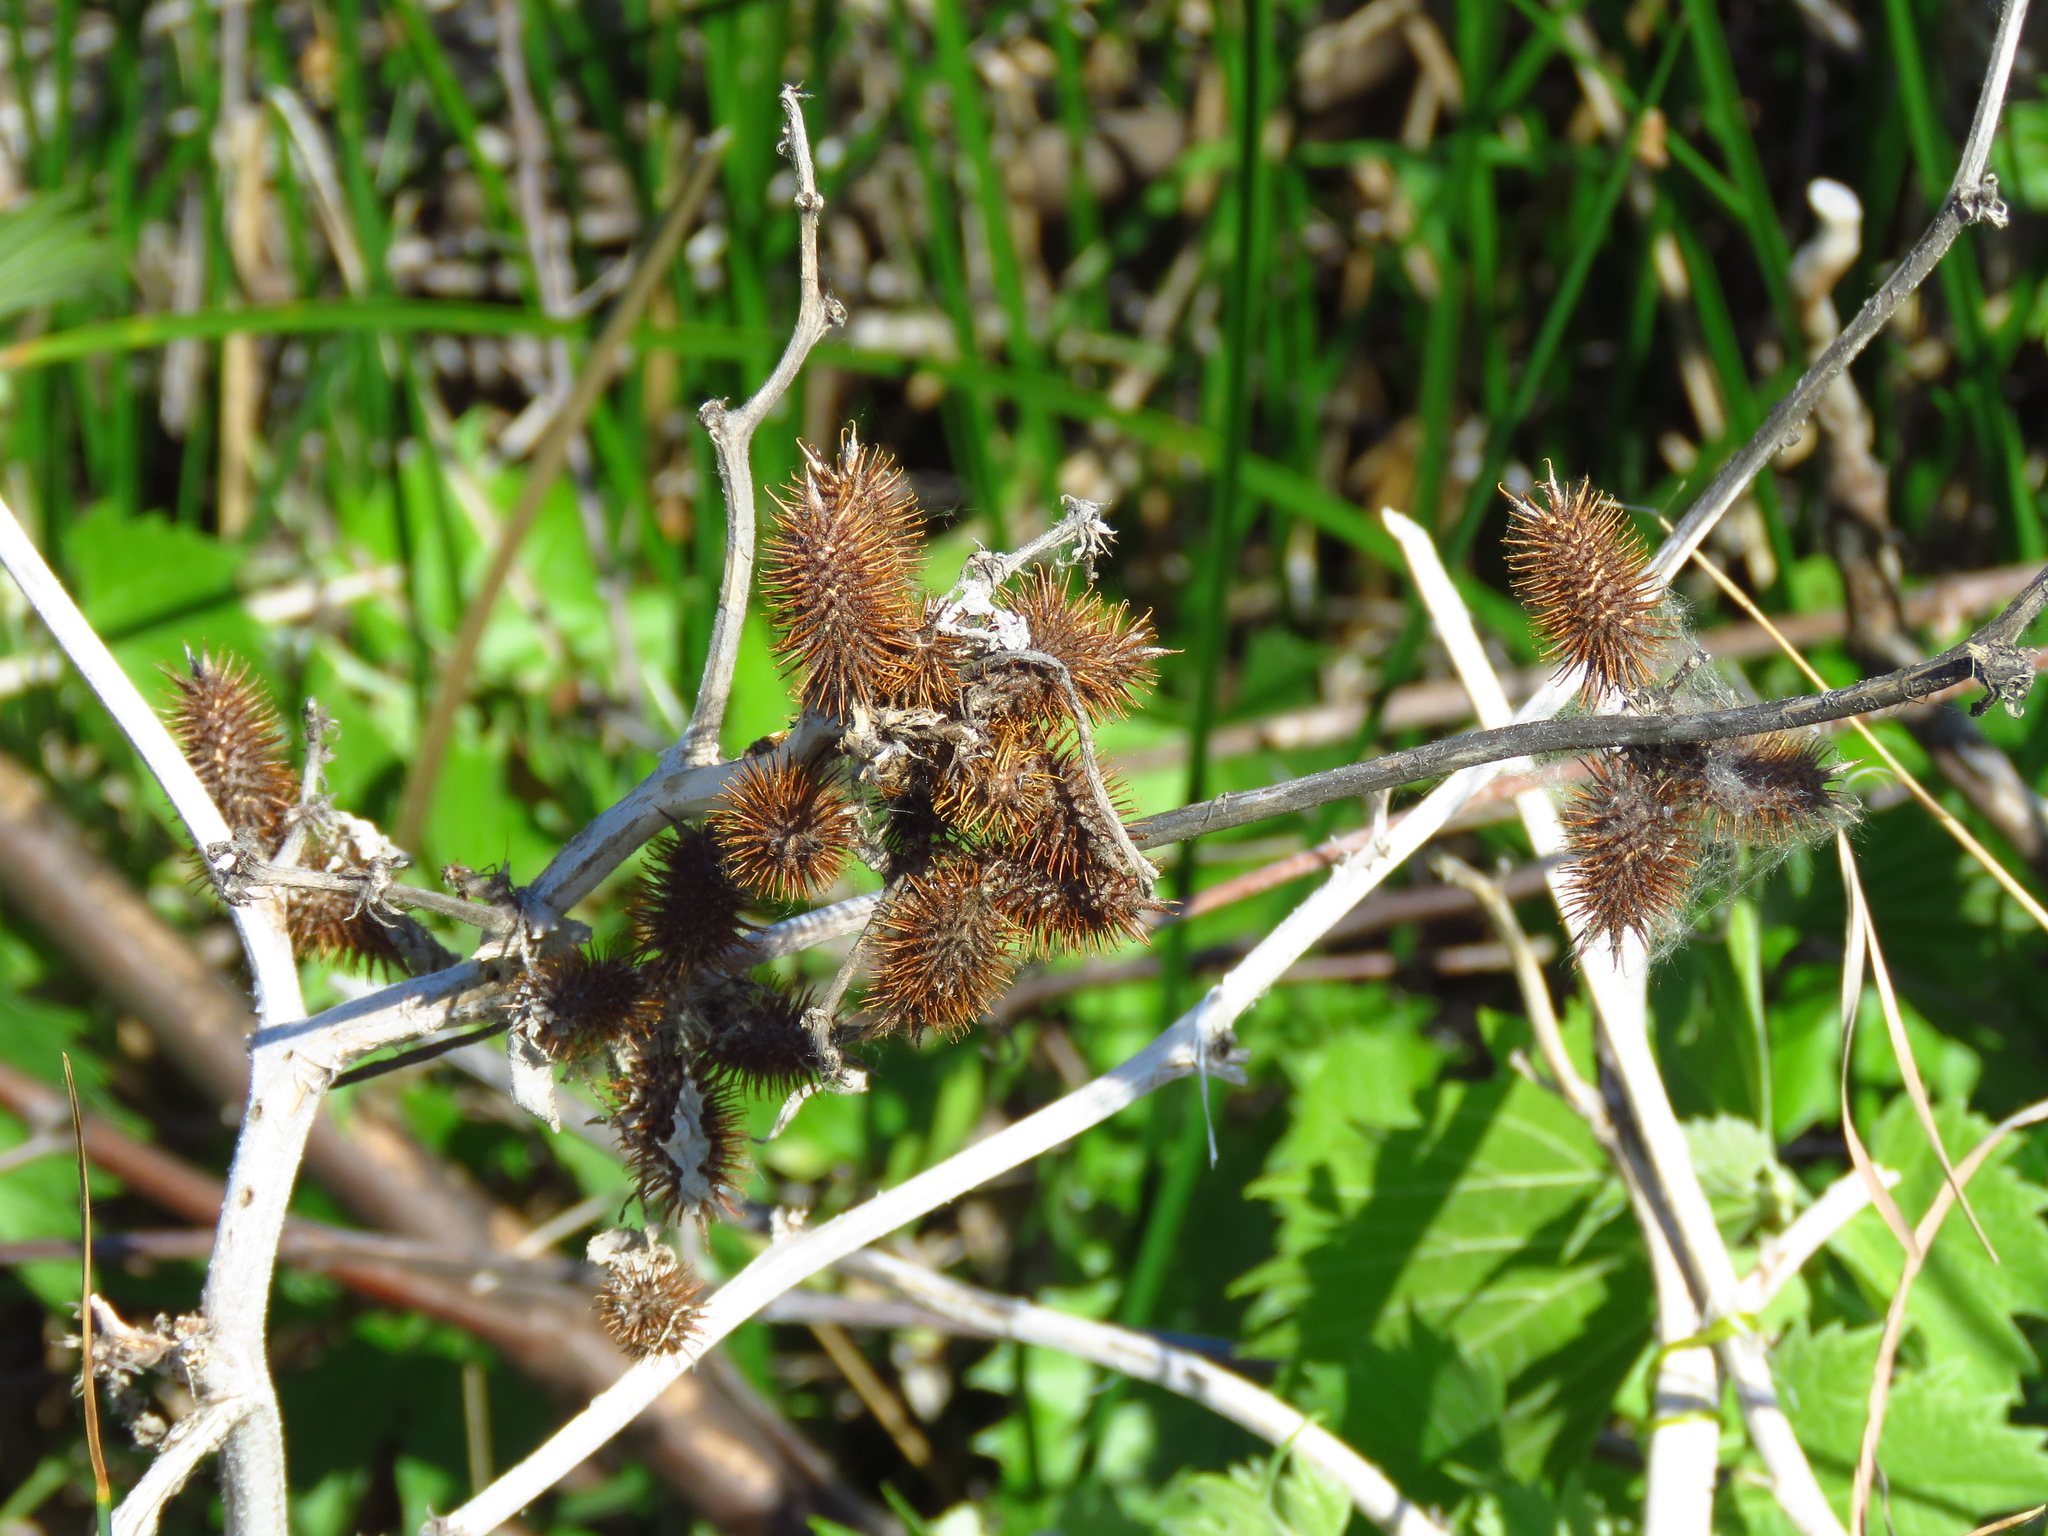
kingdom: Plantae
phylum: Tracheophyta
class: Magnoliopsida
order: Asterales
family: Asteraceae
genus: Xanthium
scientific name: Xanthium strumarium
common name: Rough cocklebur
